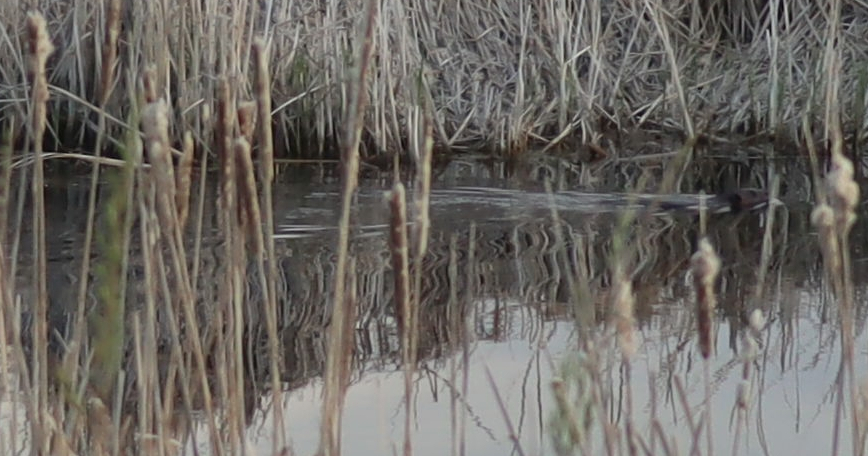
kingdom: Animalia
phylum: Chordata
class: Mammalia
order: Rodentia
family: Castoridae
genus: Castor
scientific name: Castor canadensis
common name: American beaver
